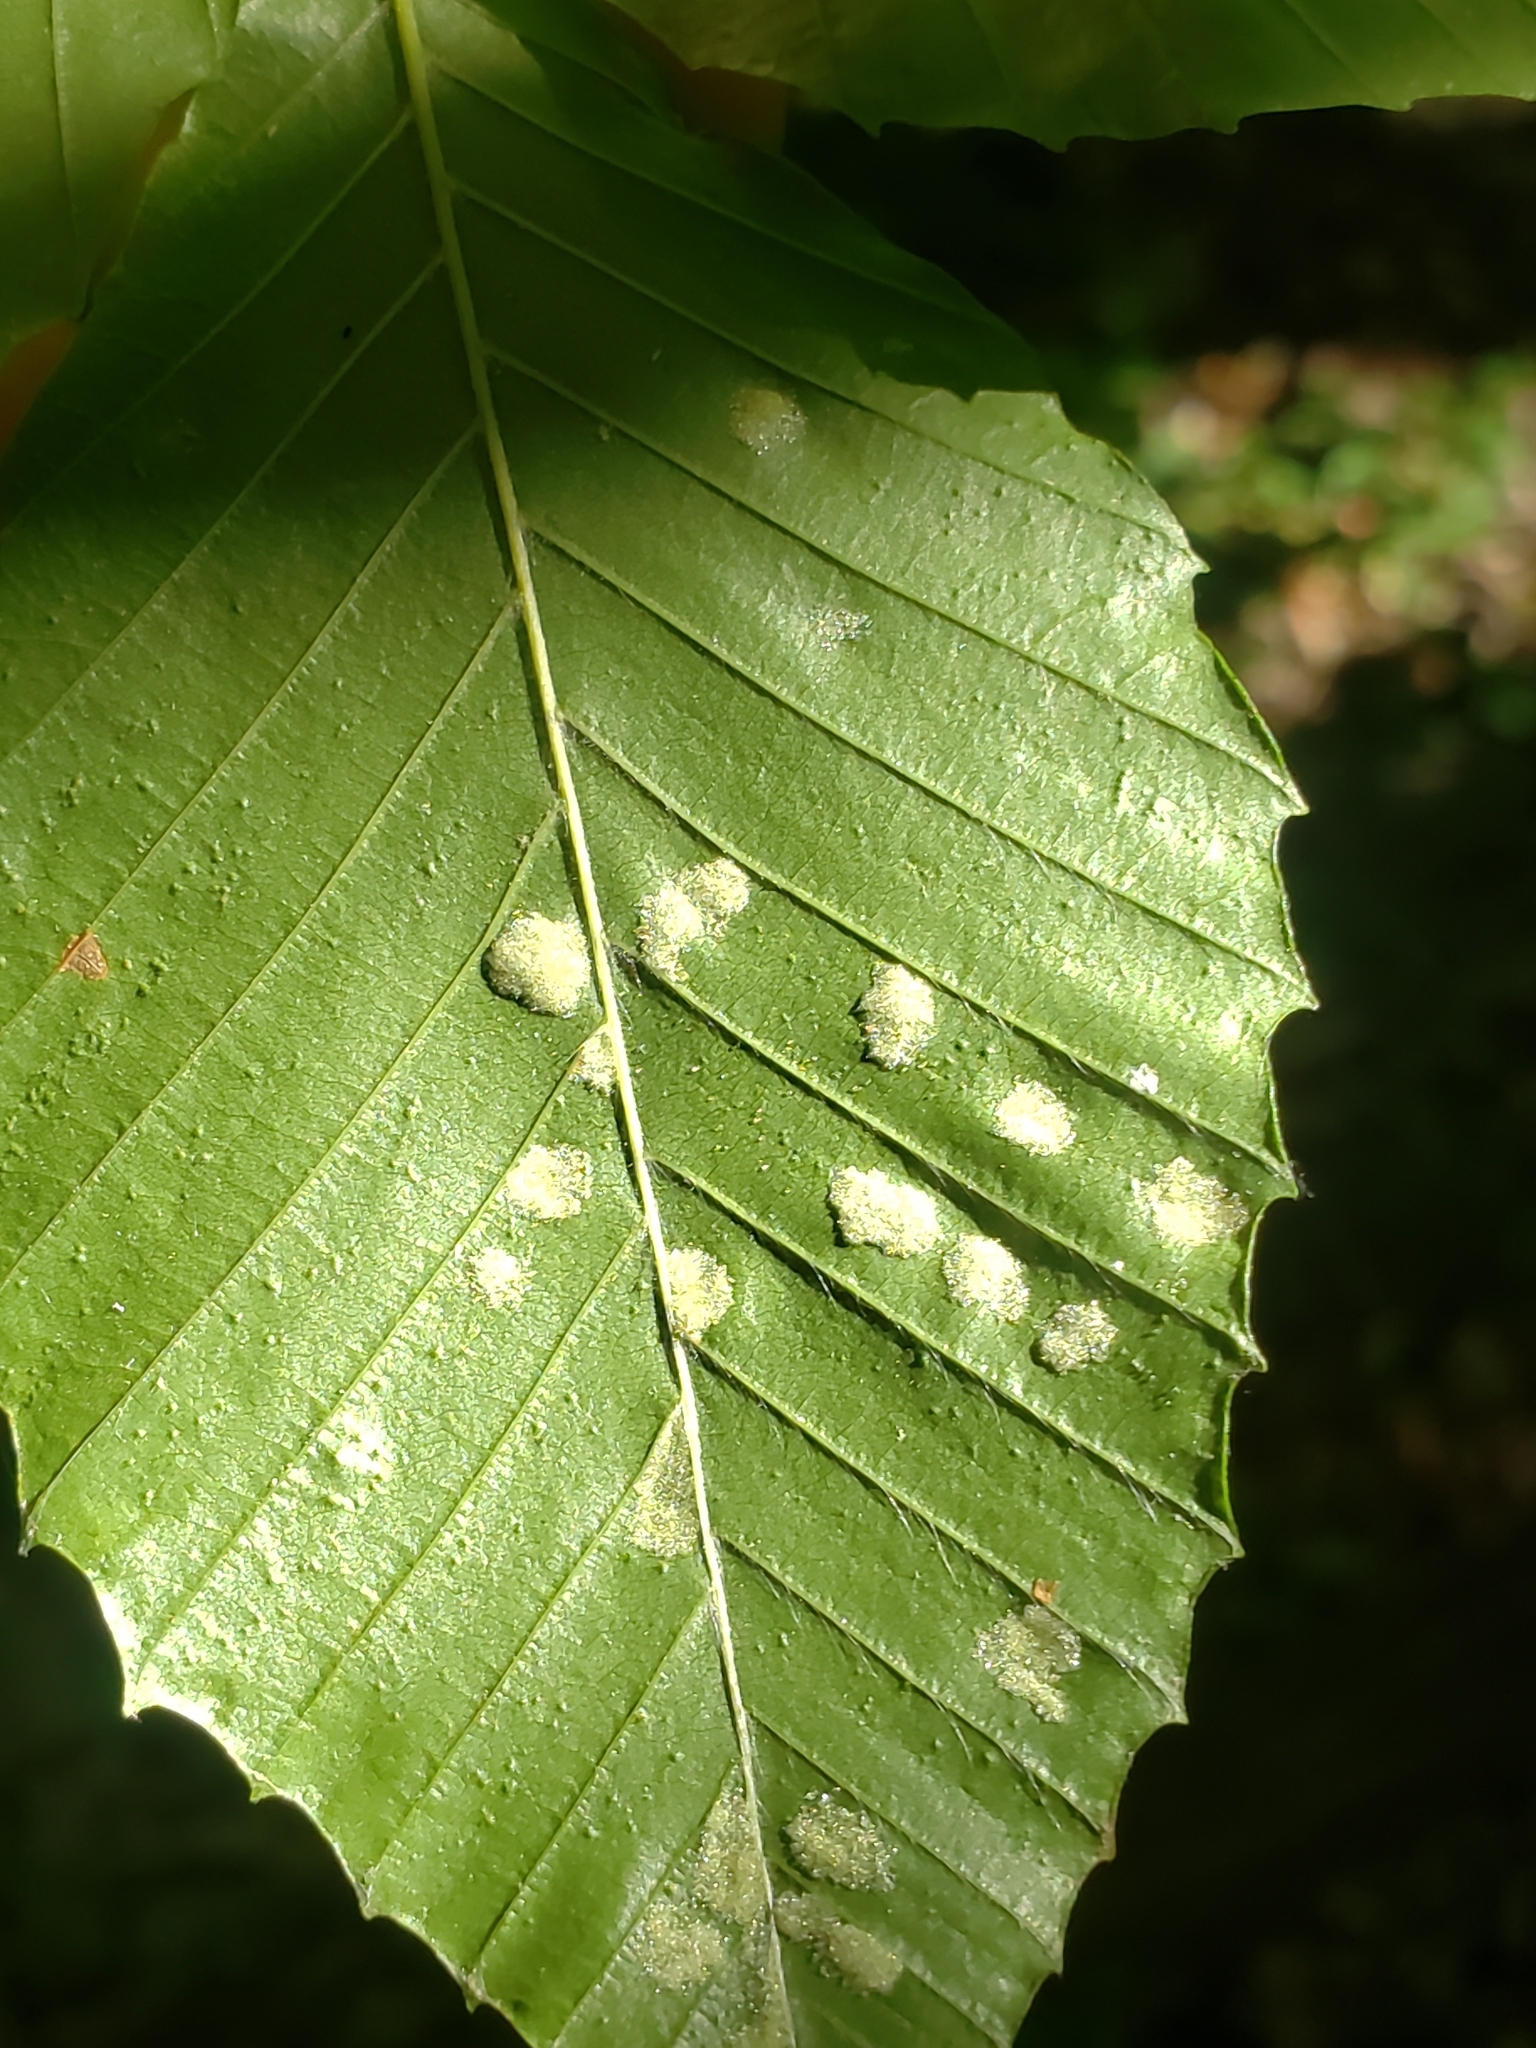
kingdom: Animalia
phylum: Arthropoda
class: Arachnida
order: Trombidiformes
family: Eriophyidae
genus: Acalitus
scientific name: Acalitus
